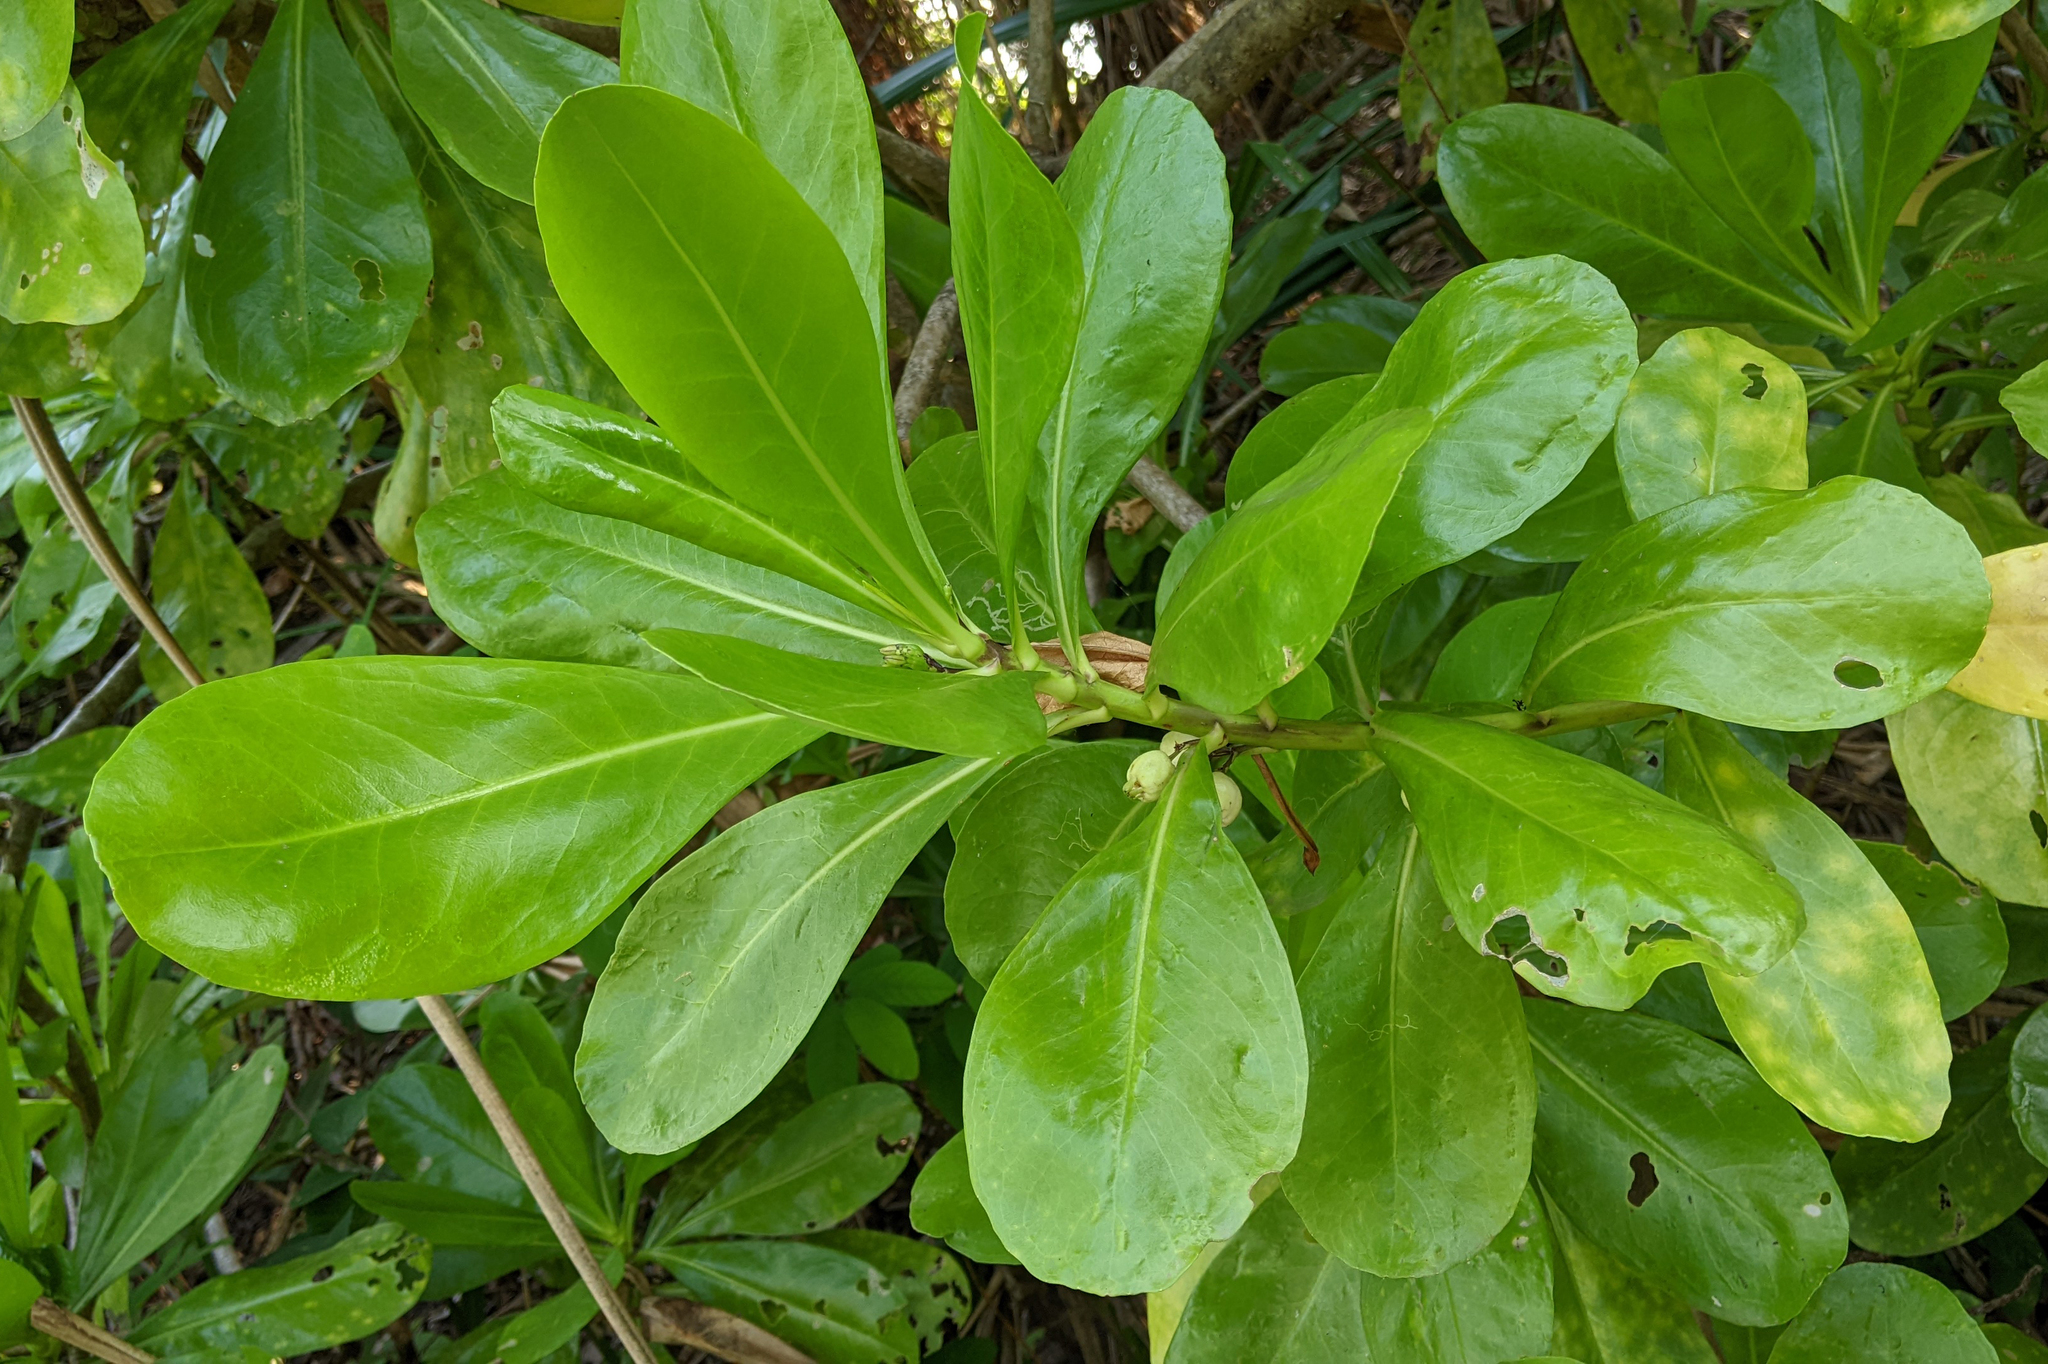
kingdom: Plantae
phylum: Tracheophyta
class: Magnoliopsida
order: Asterales
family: Goodeniaceae
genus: Scaevola
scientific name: Scaevola taccada
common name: Sea lettucetree
